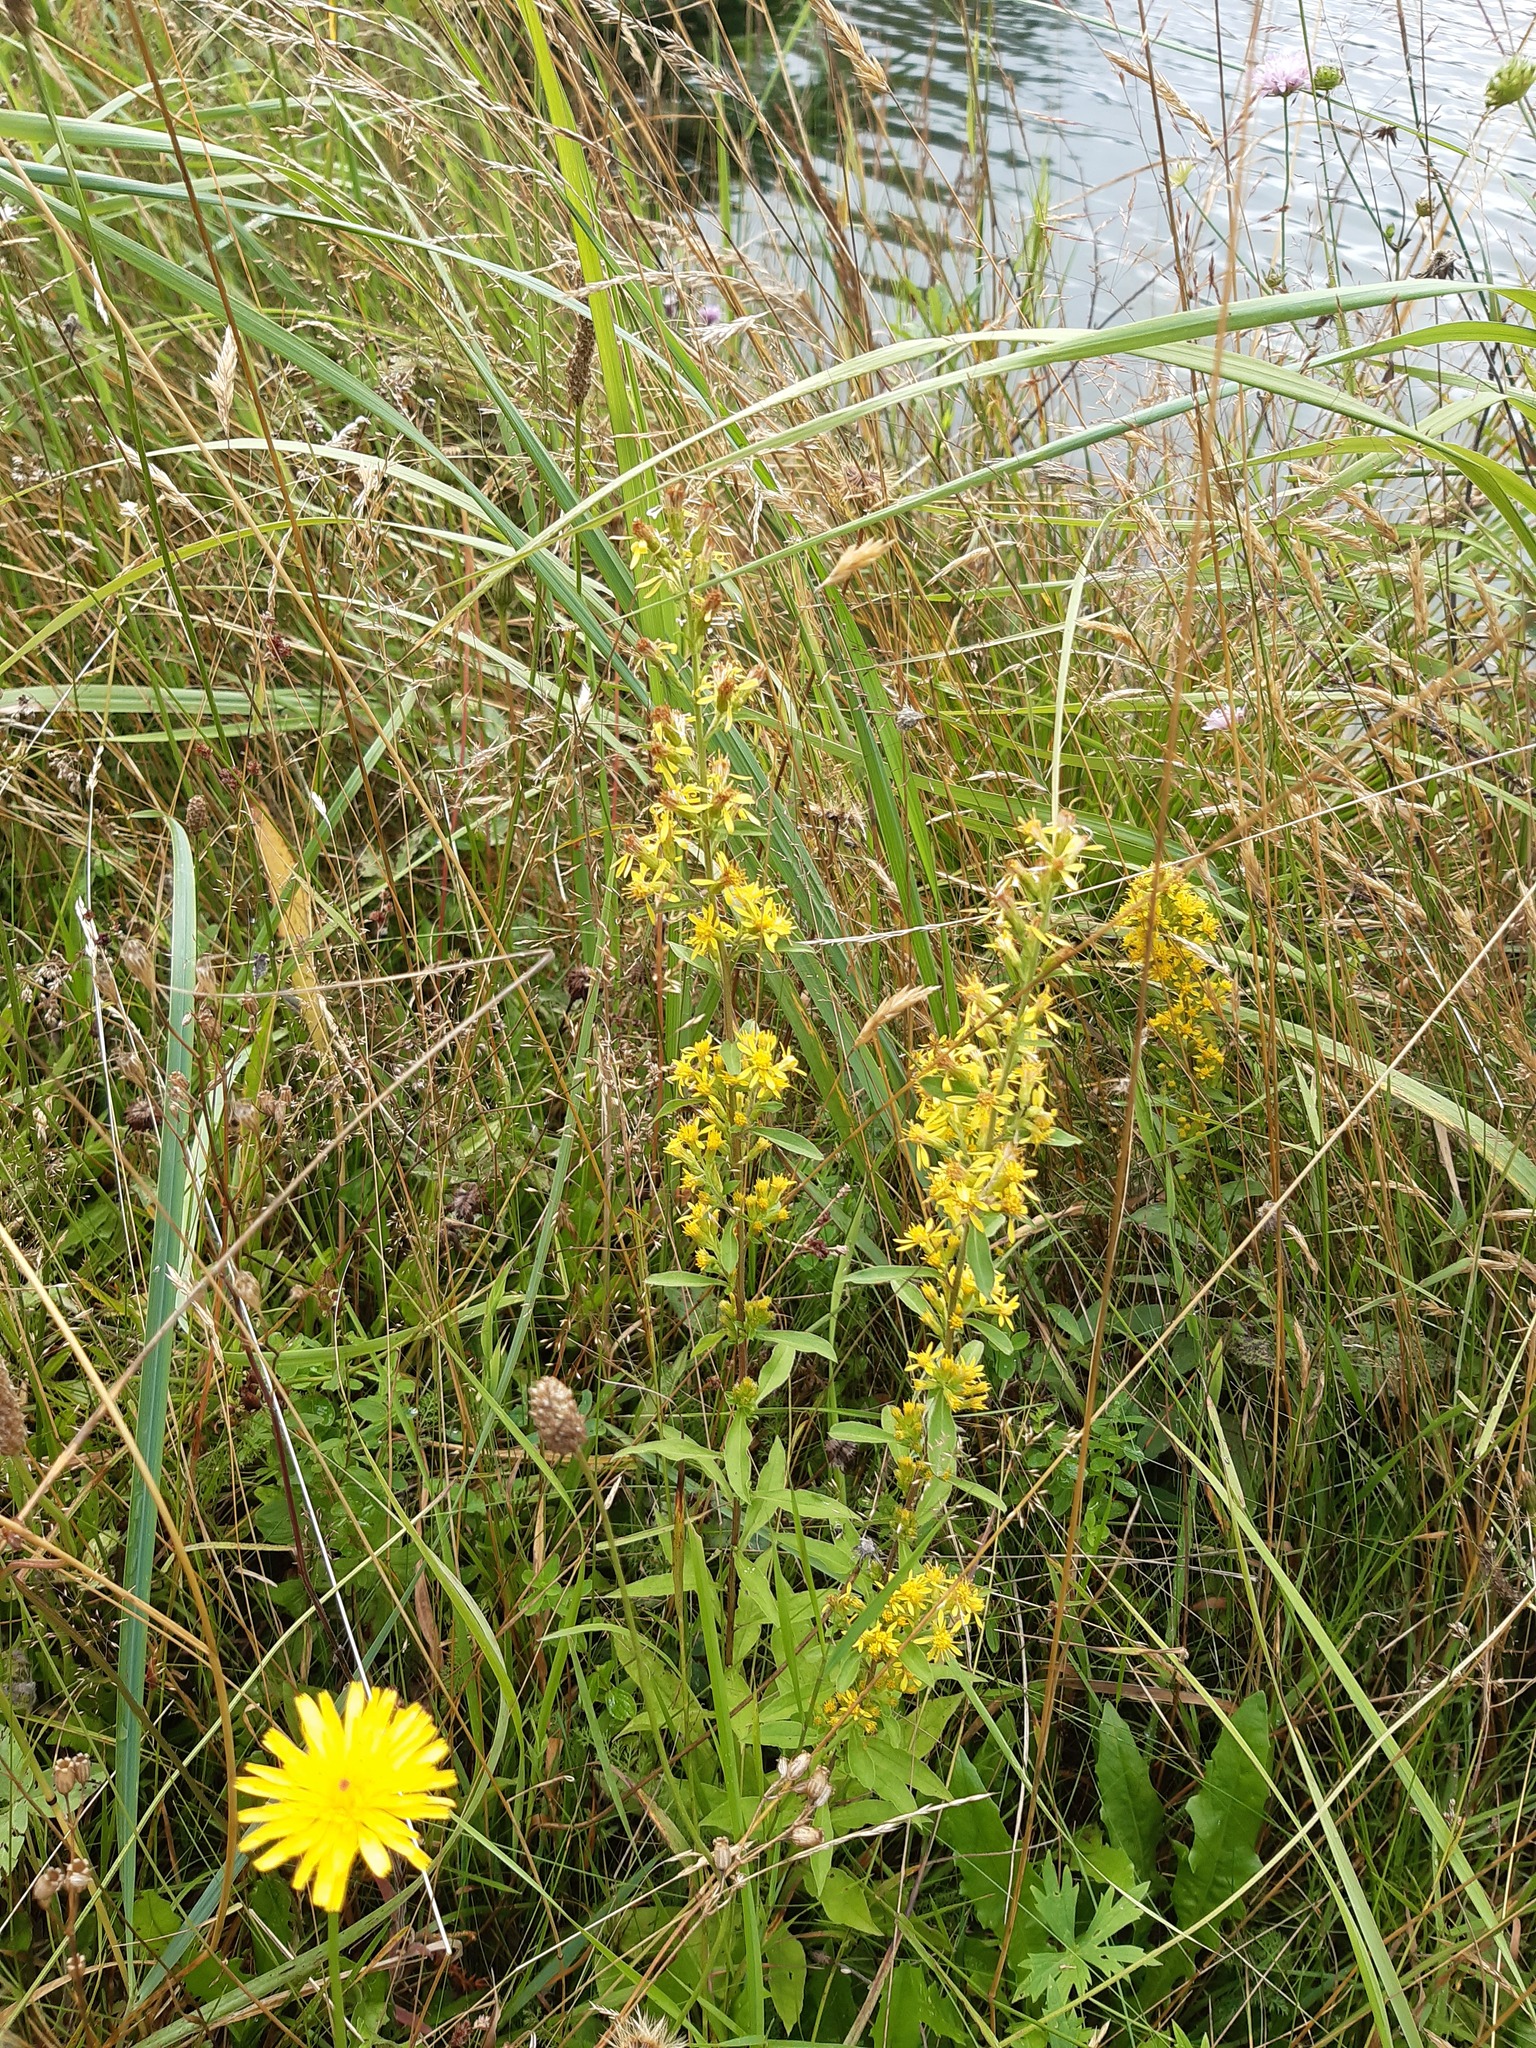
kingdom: Plantae
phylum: Tracheophyta
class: Magnoliopsida
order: Asterales
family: Asteraceae
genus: Solidago
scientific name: Solidago virgaurea
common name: Goldenrod
